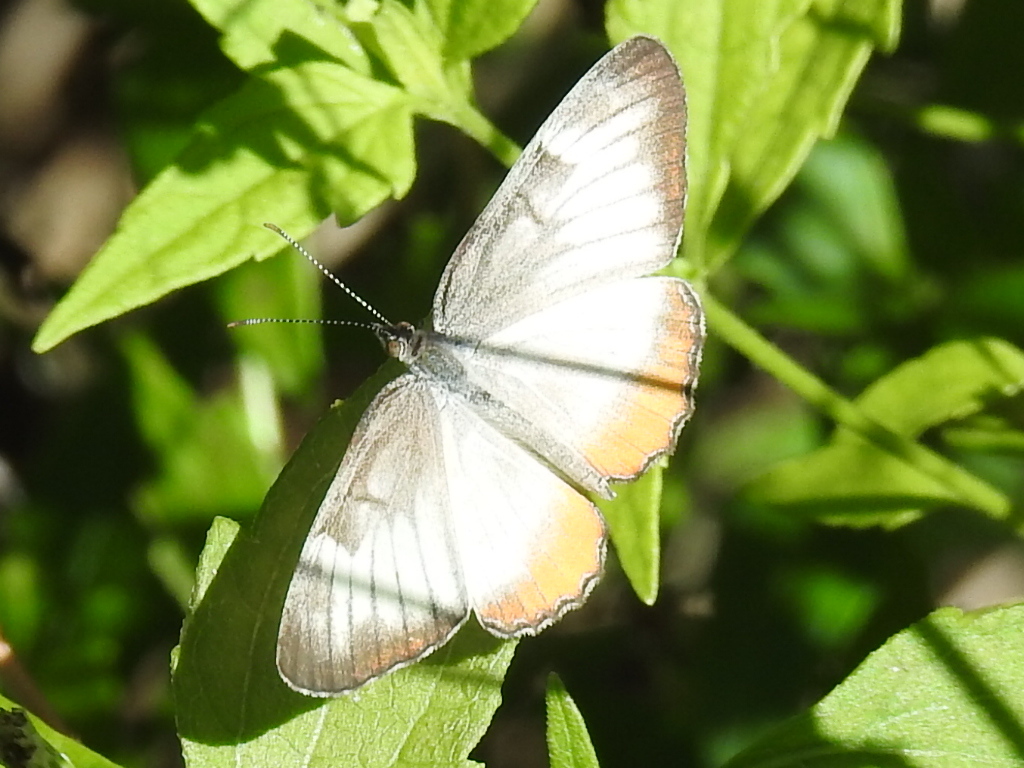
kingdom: Animalia
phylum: Arthropoda
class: Insecta
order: Lepidoptera
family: Nymphalidae
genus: Mestra
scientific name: Mestra amymone
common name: Common mestra
